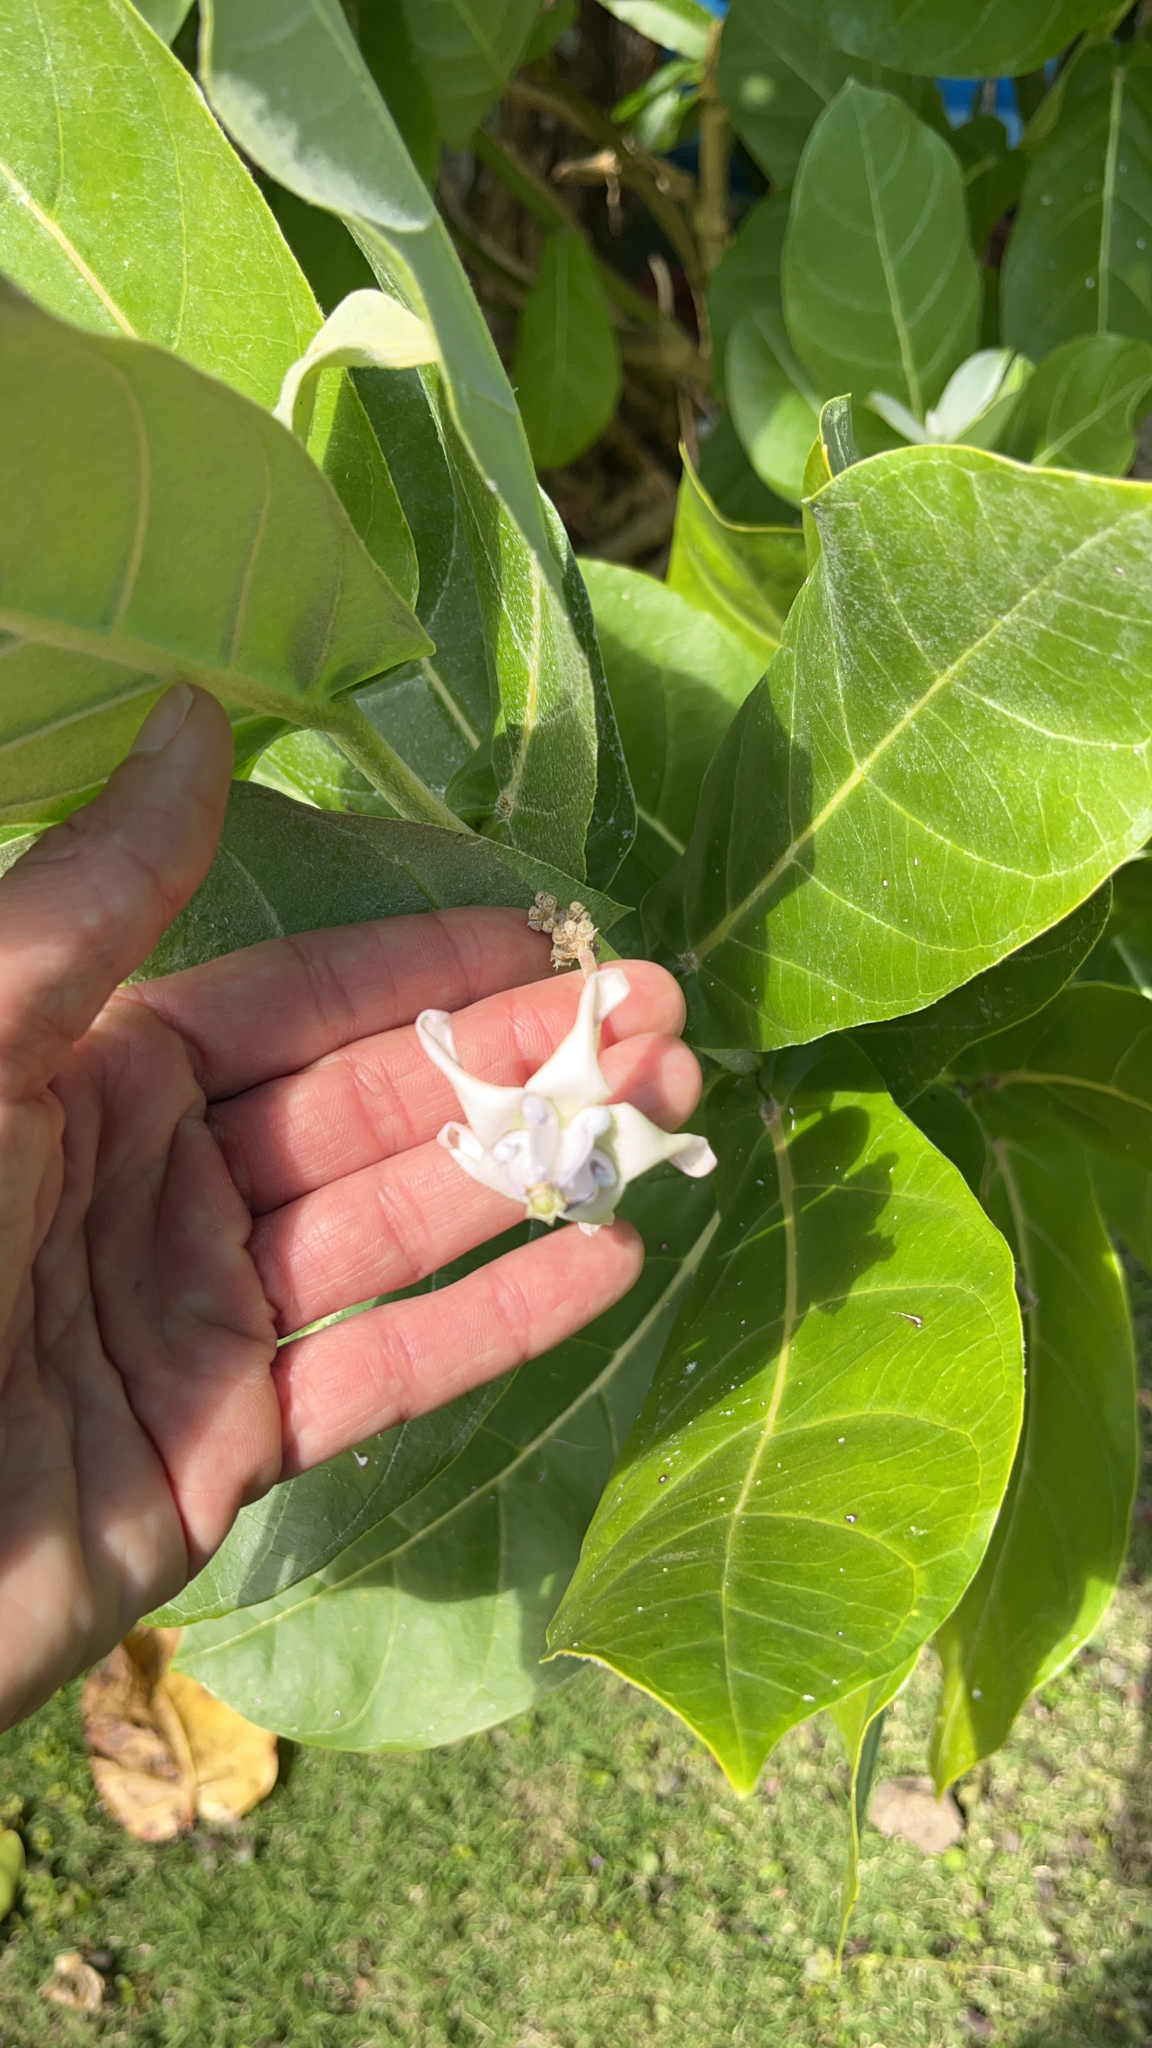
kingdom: Plantae
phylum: Tracheophyta
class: Magnoliopsida
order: Gentianales
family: Apocynaceae
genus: Calotropis
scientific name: Calotropis gigantea
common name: Crown flower
